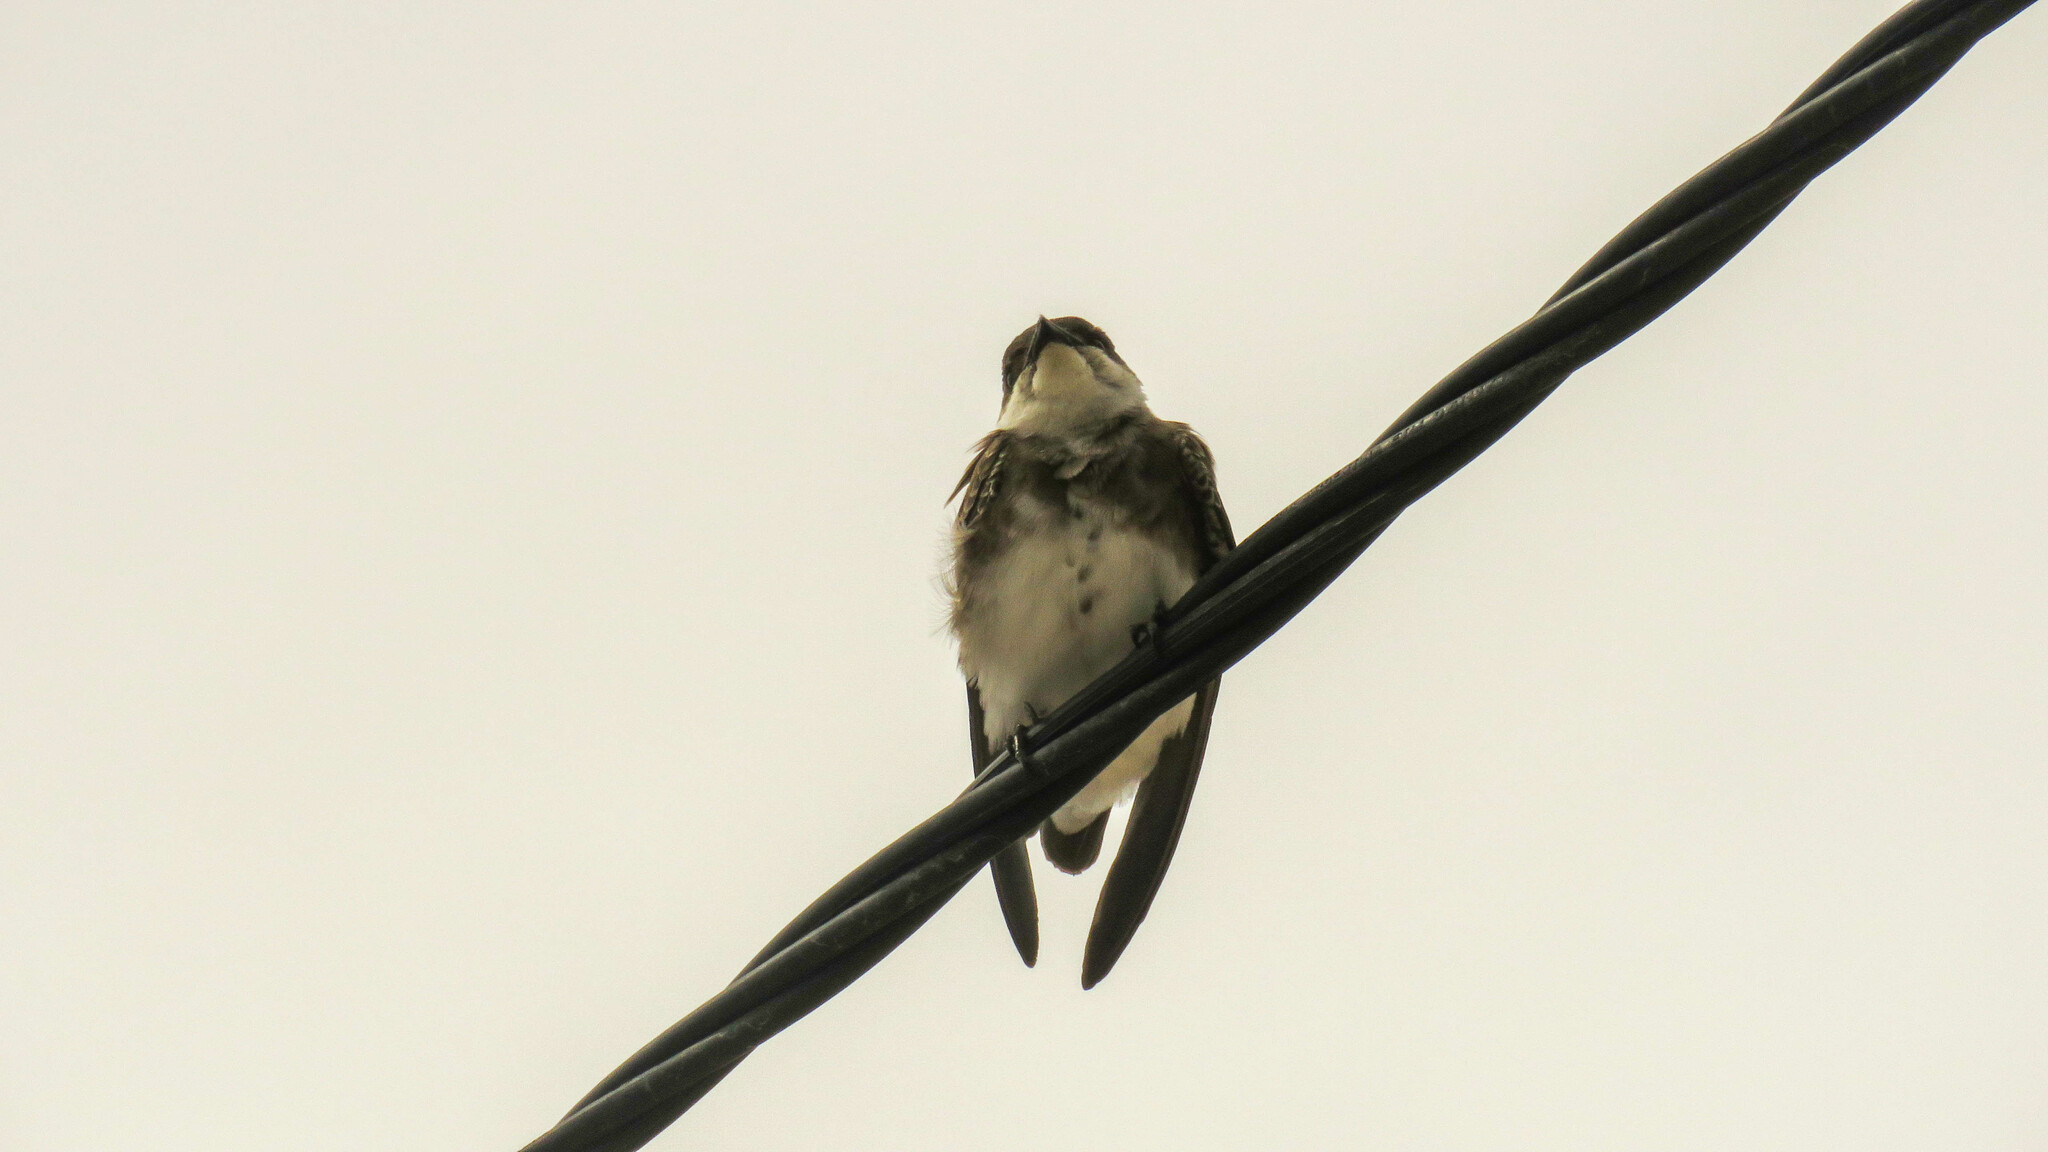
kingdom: Animalia
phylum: Chordata
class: Aves
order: Passeriformes
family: Hirundinidae
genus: Progne
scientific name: Progne tapera
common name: Brown-chested martin
